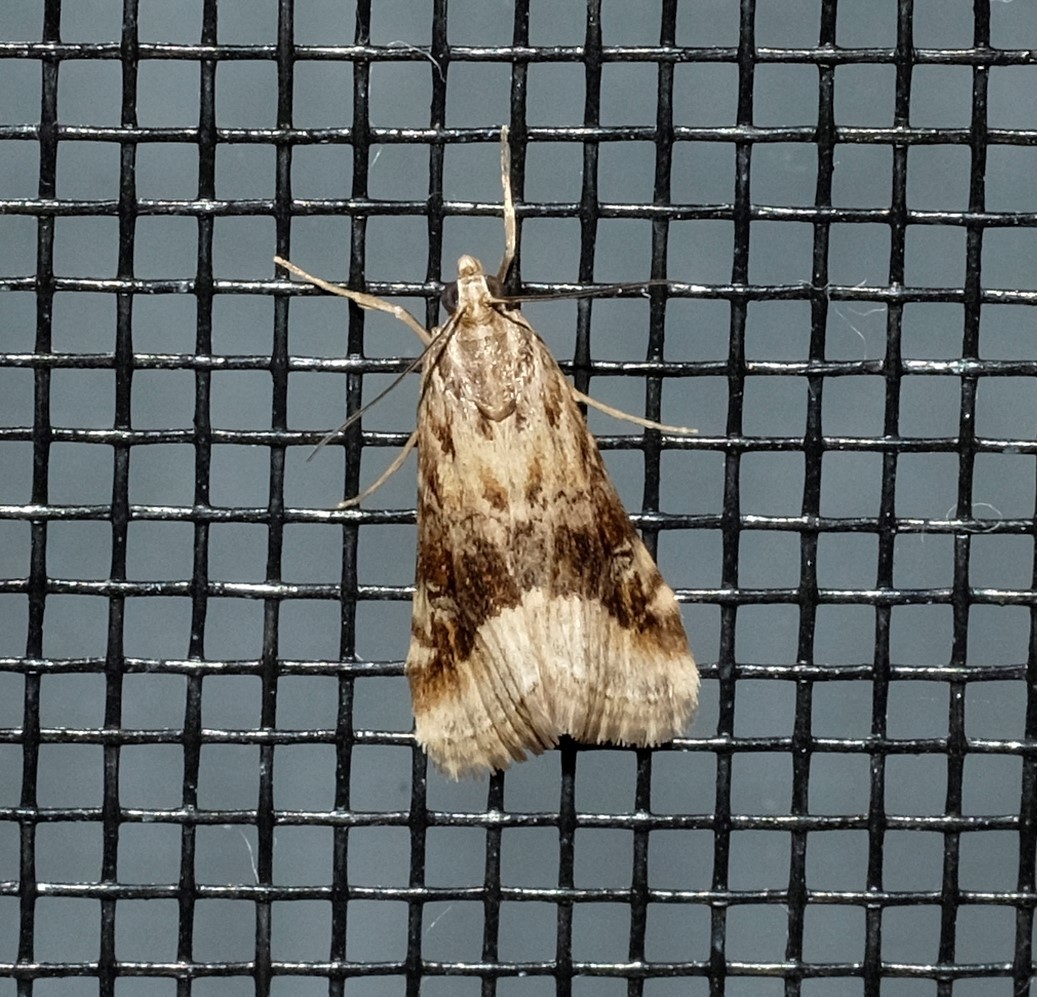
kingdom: Animalia
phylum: Arthropoda
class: Insecta
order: Lepidoptera
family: Crambidae
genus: Hellula
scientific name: Hellula hydralis
